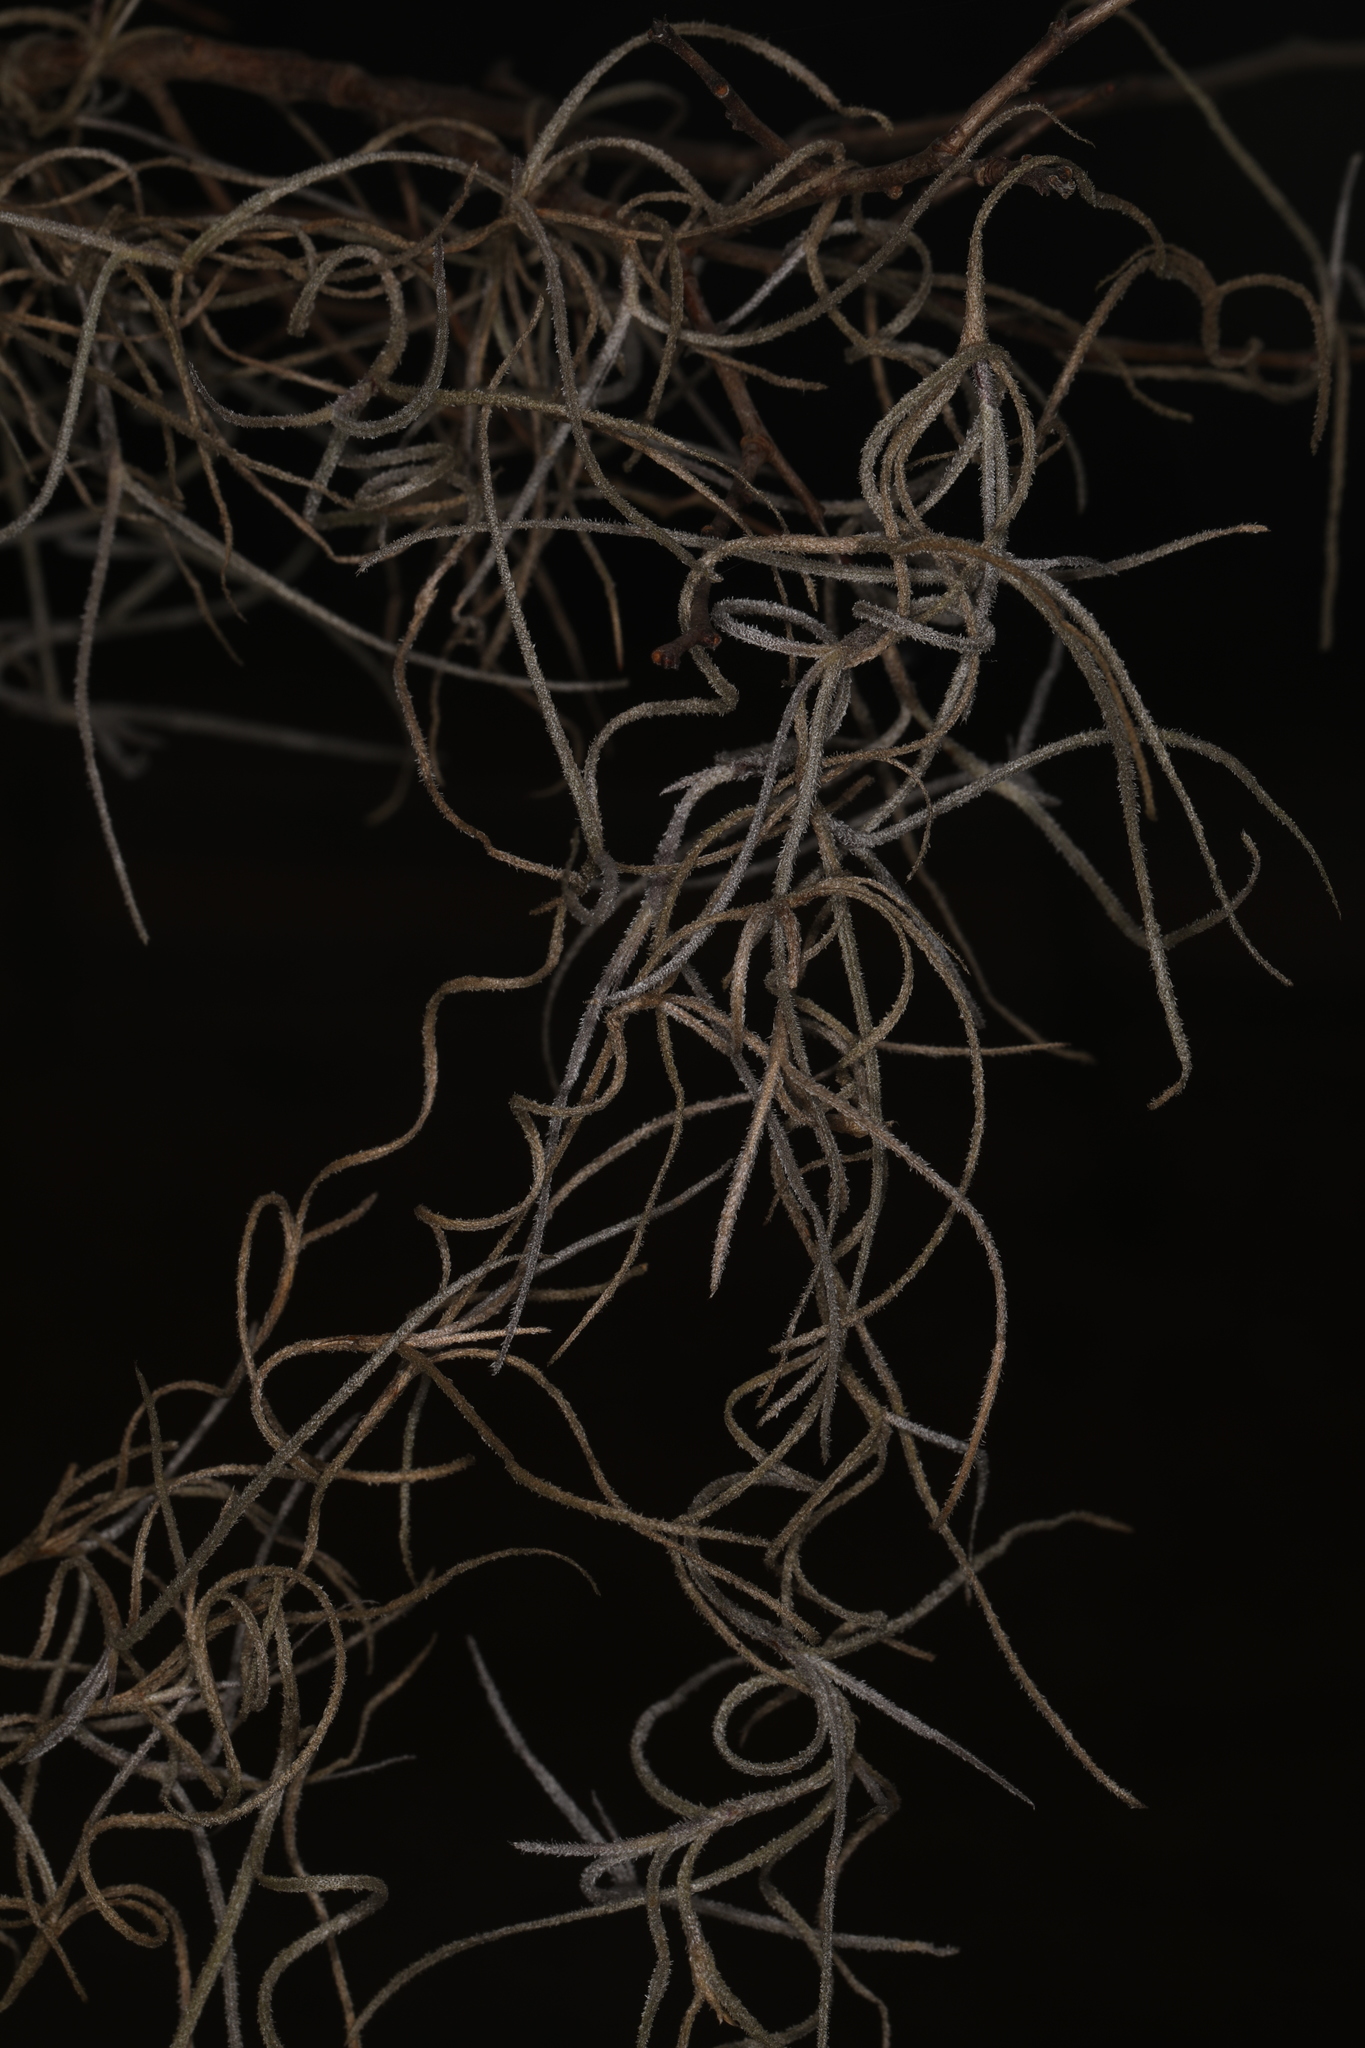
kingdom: Plantae
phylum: Tracheophyta
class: Liliopsida
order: Poales
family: Bromeliaceae
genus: Tillandsia
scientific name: Tillandsia usneoides
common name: Spanish moss
